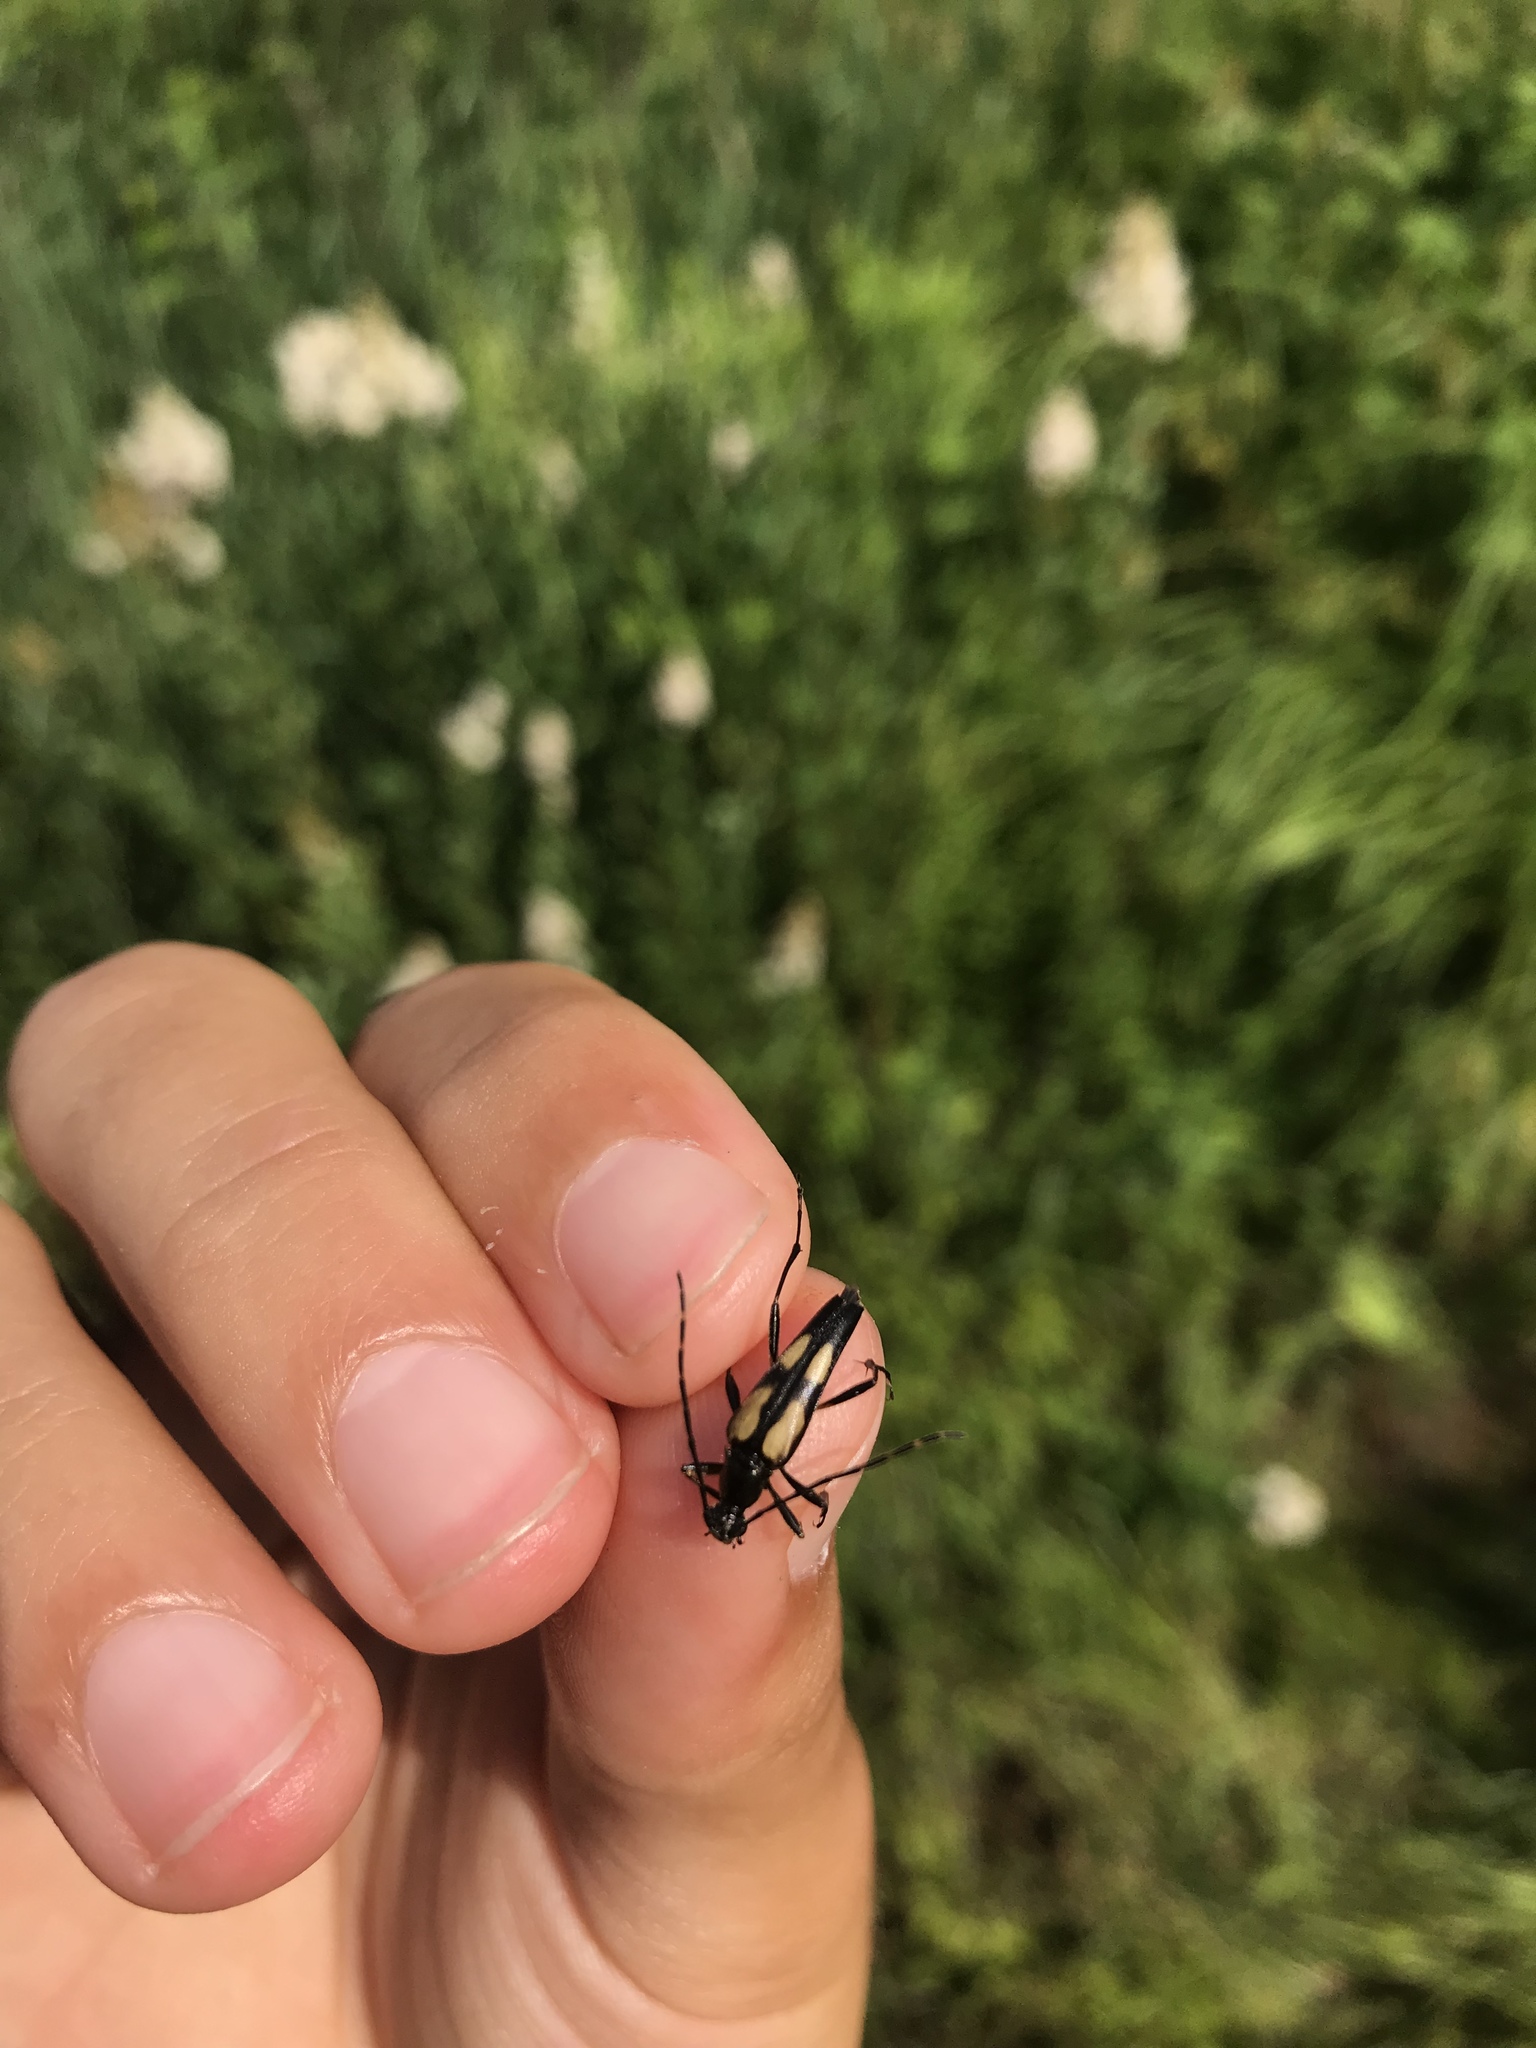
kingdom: Animalia
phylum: Arthropoda
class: Insecta
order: Coleoptera
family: Cerambycidae
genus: Etorofus
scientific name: Etorofus
